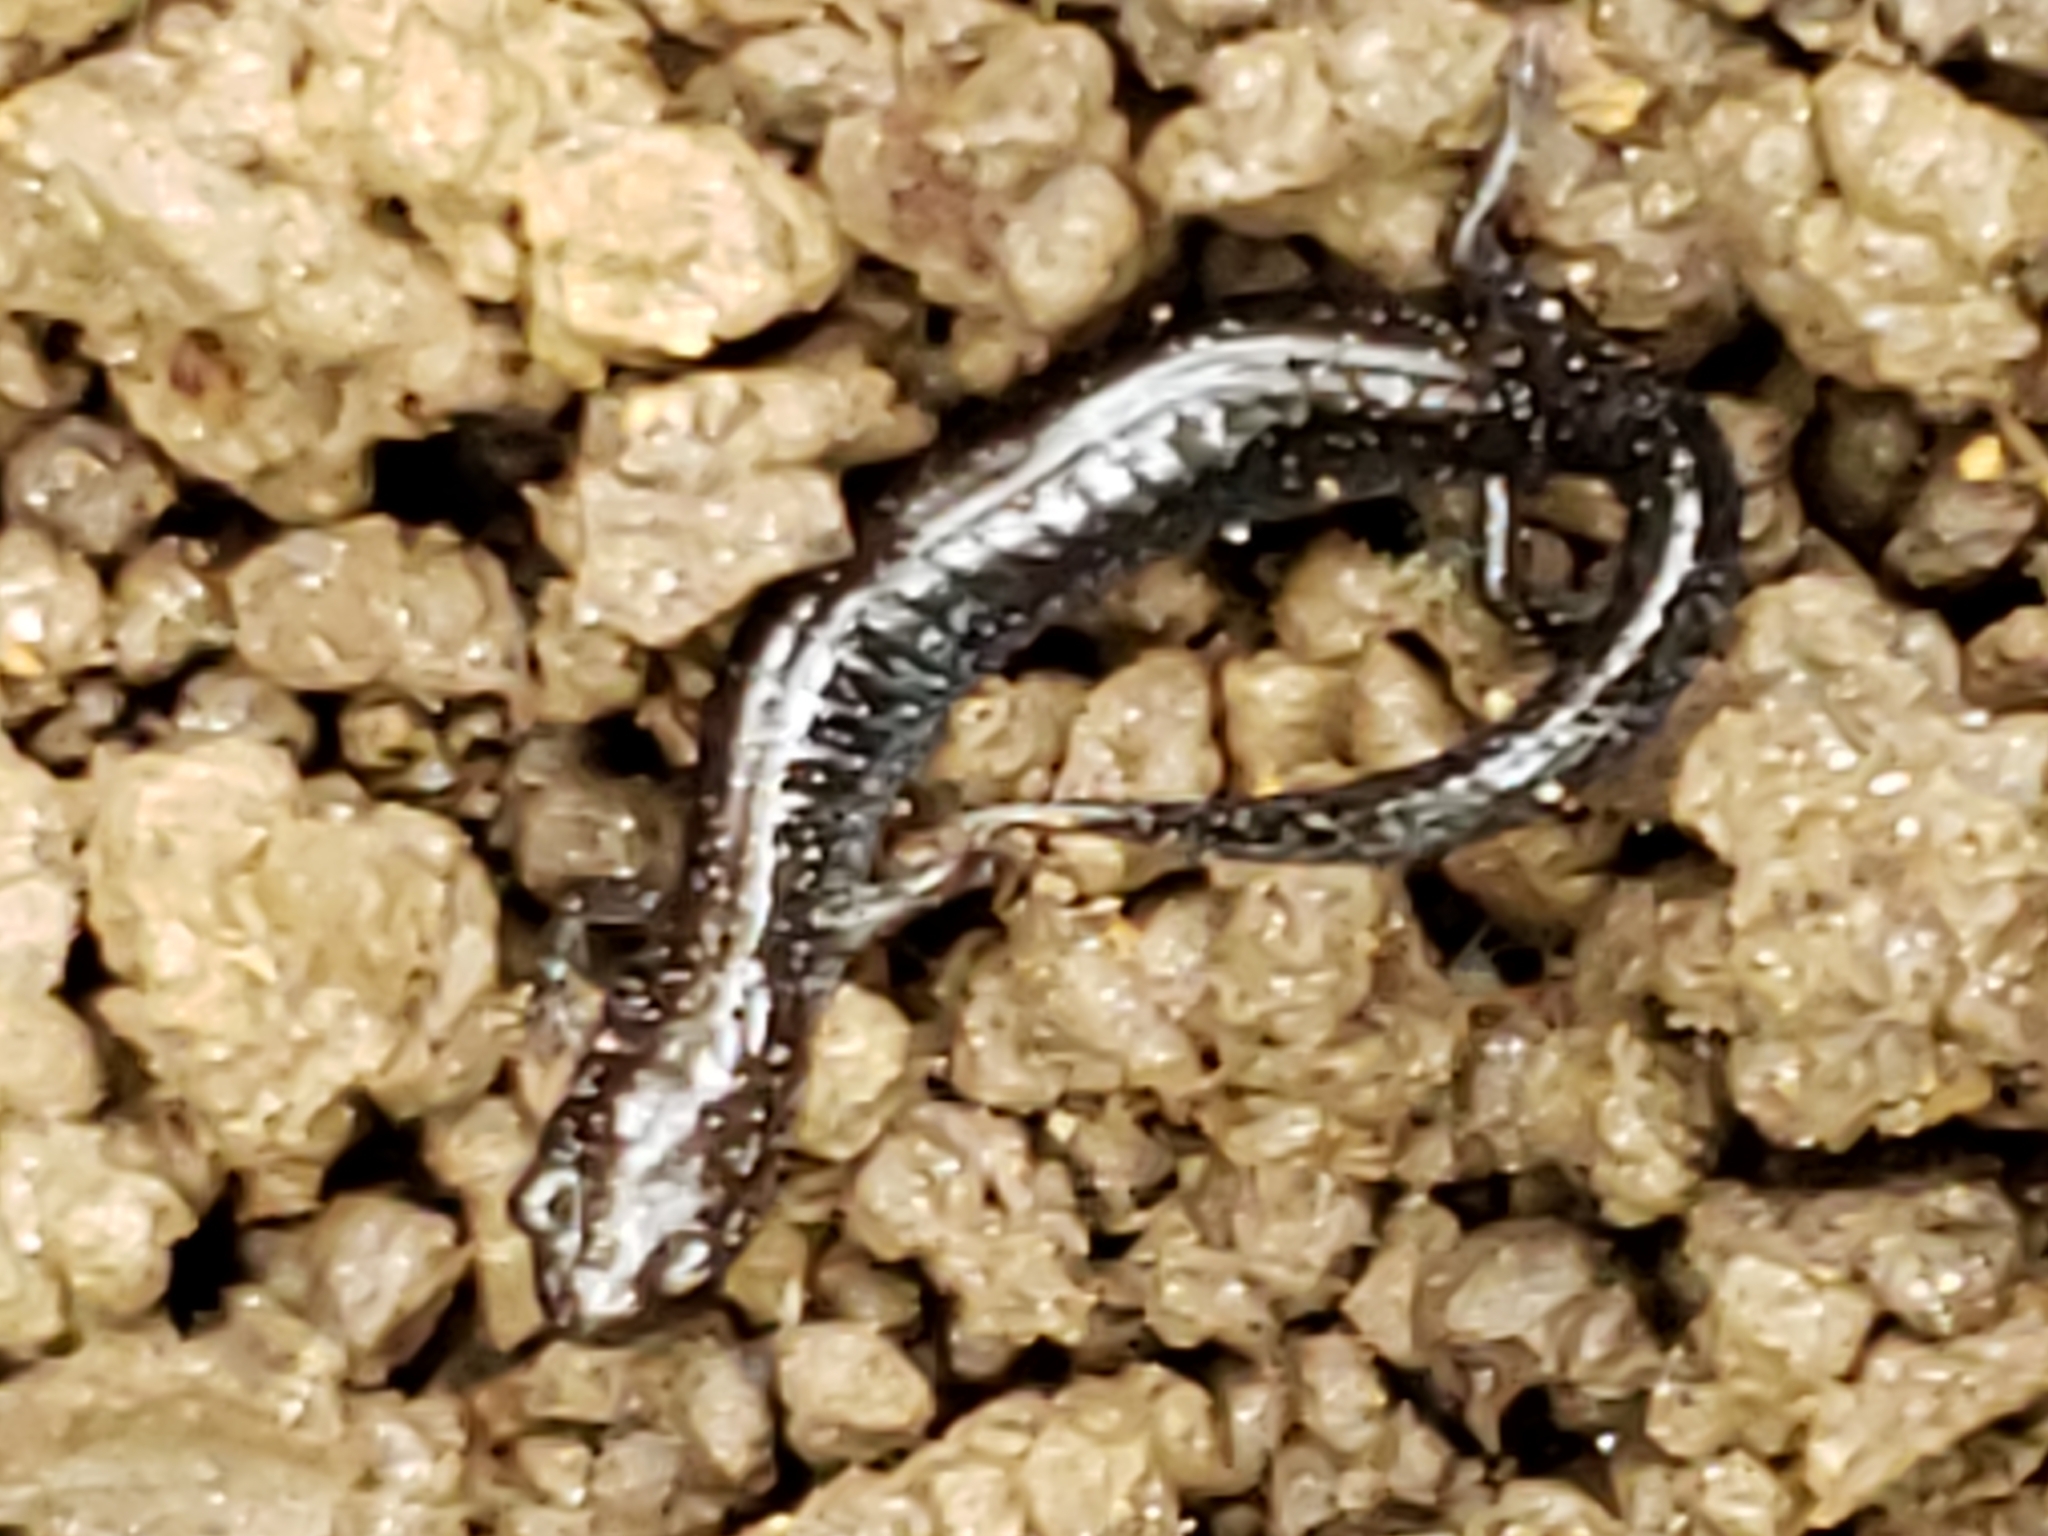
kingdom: Animalia
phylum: Chordata
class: Amphibia
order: Caudata
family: Plethodontidae
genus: Plethodon
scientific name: Plethodon cinereus
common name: Redback salamander
